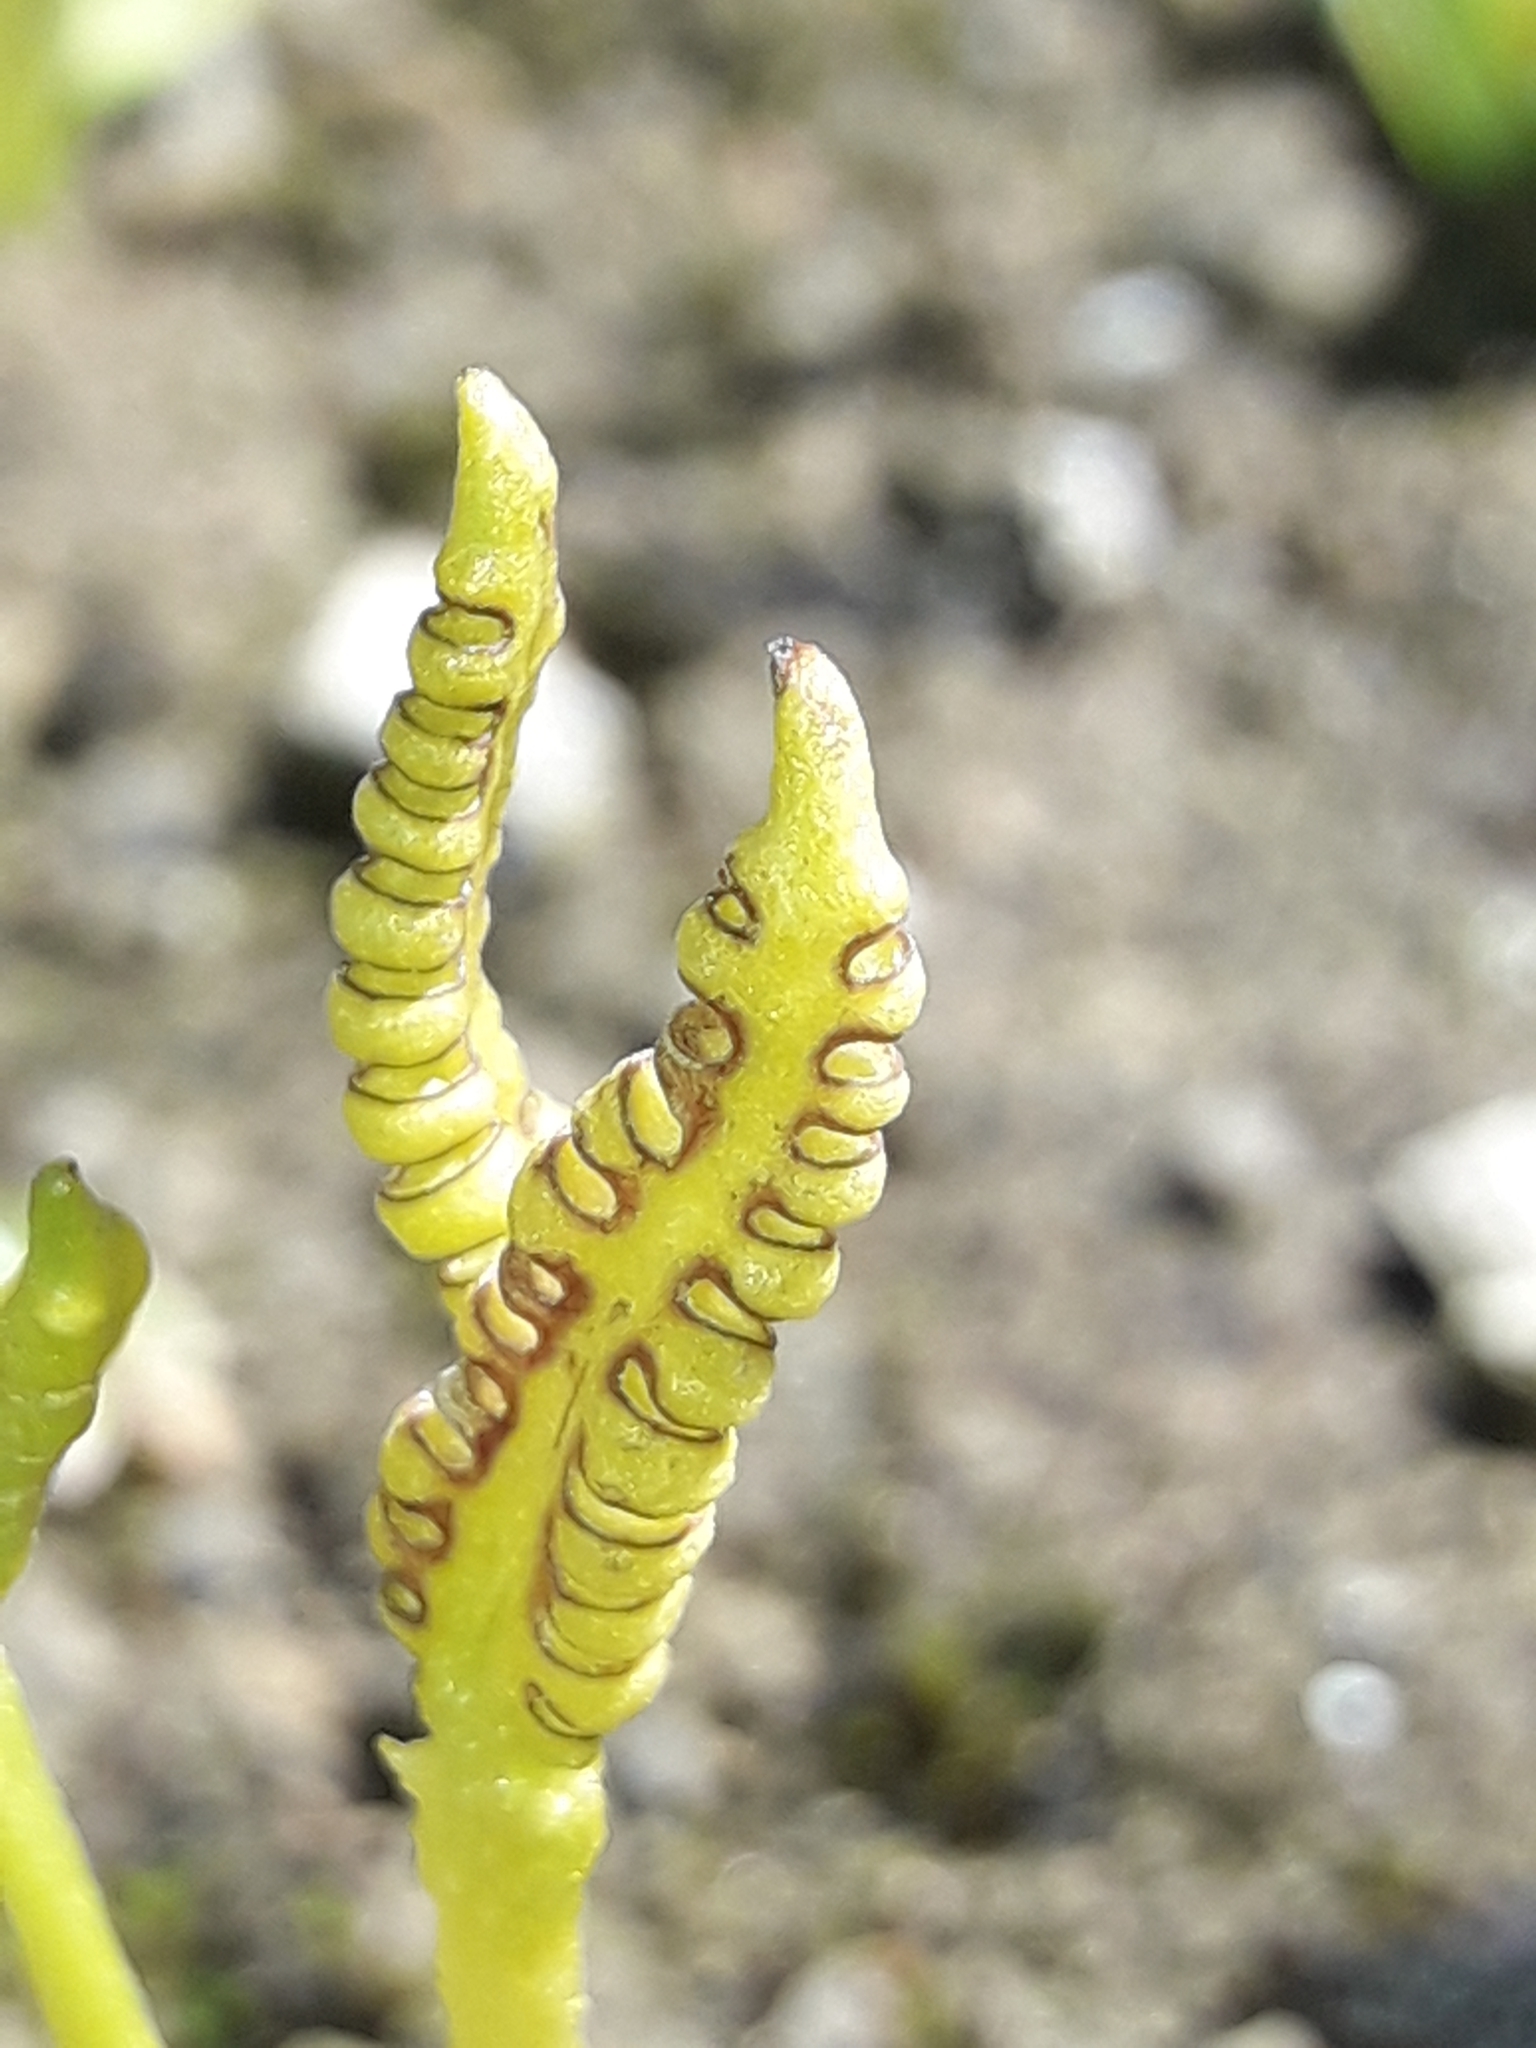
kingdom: Plantae
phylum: Tracheophyta
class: Polypodiopsida
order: Ophioglossales
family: Ophioglossaceae
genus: Ophioglossum
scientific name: Ophioglossum coriaceum
